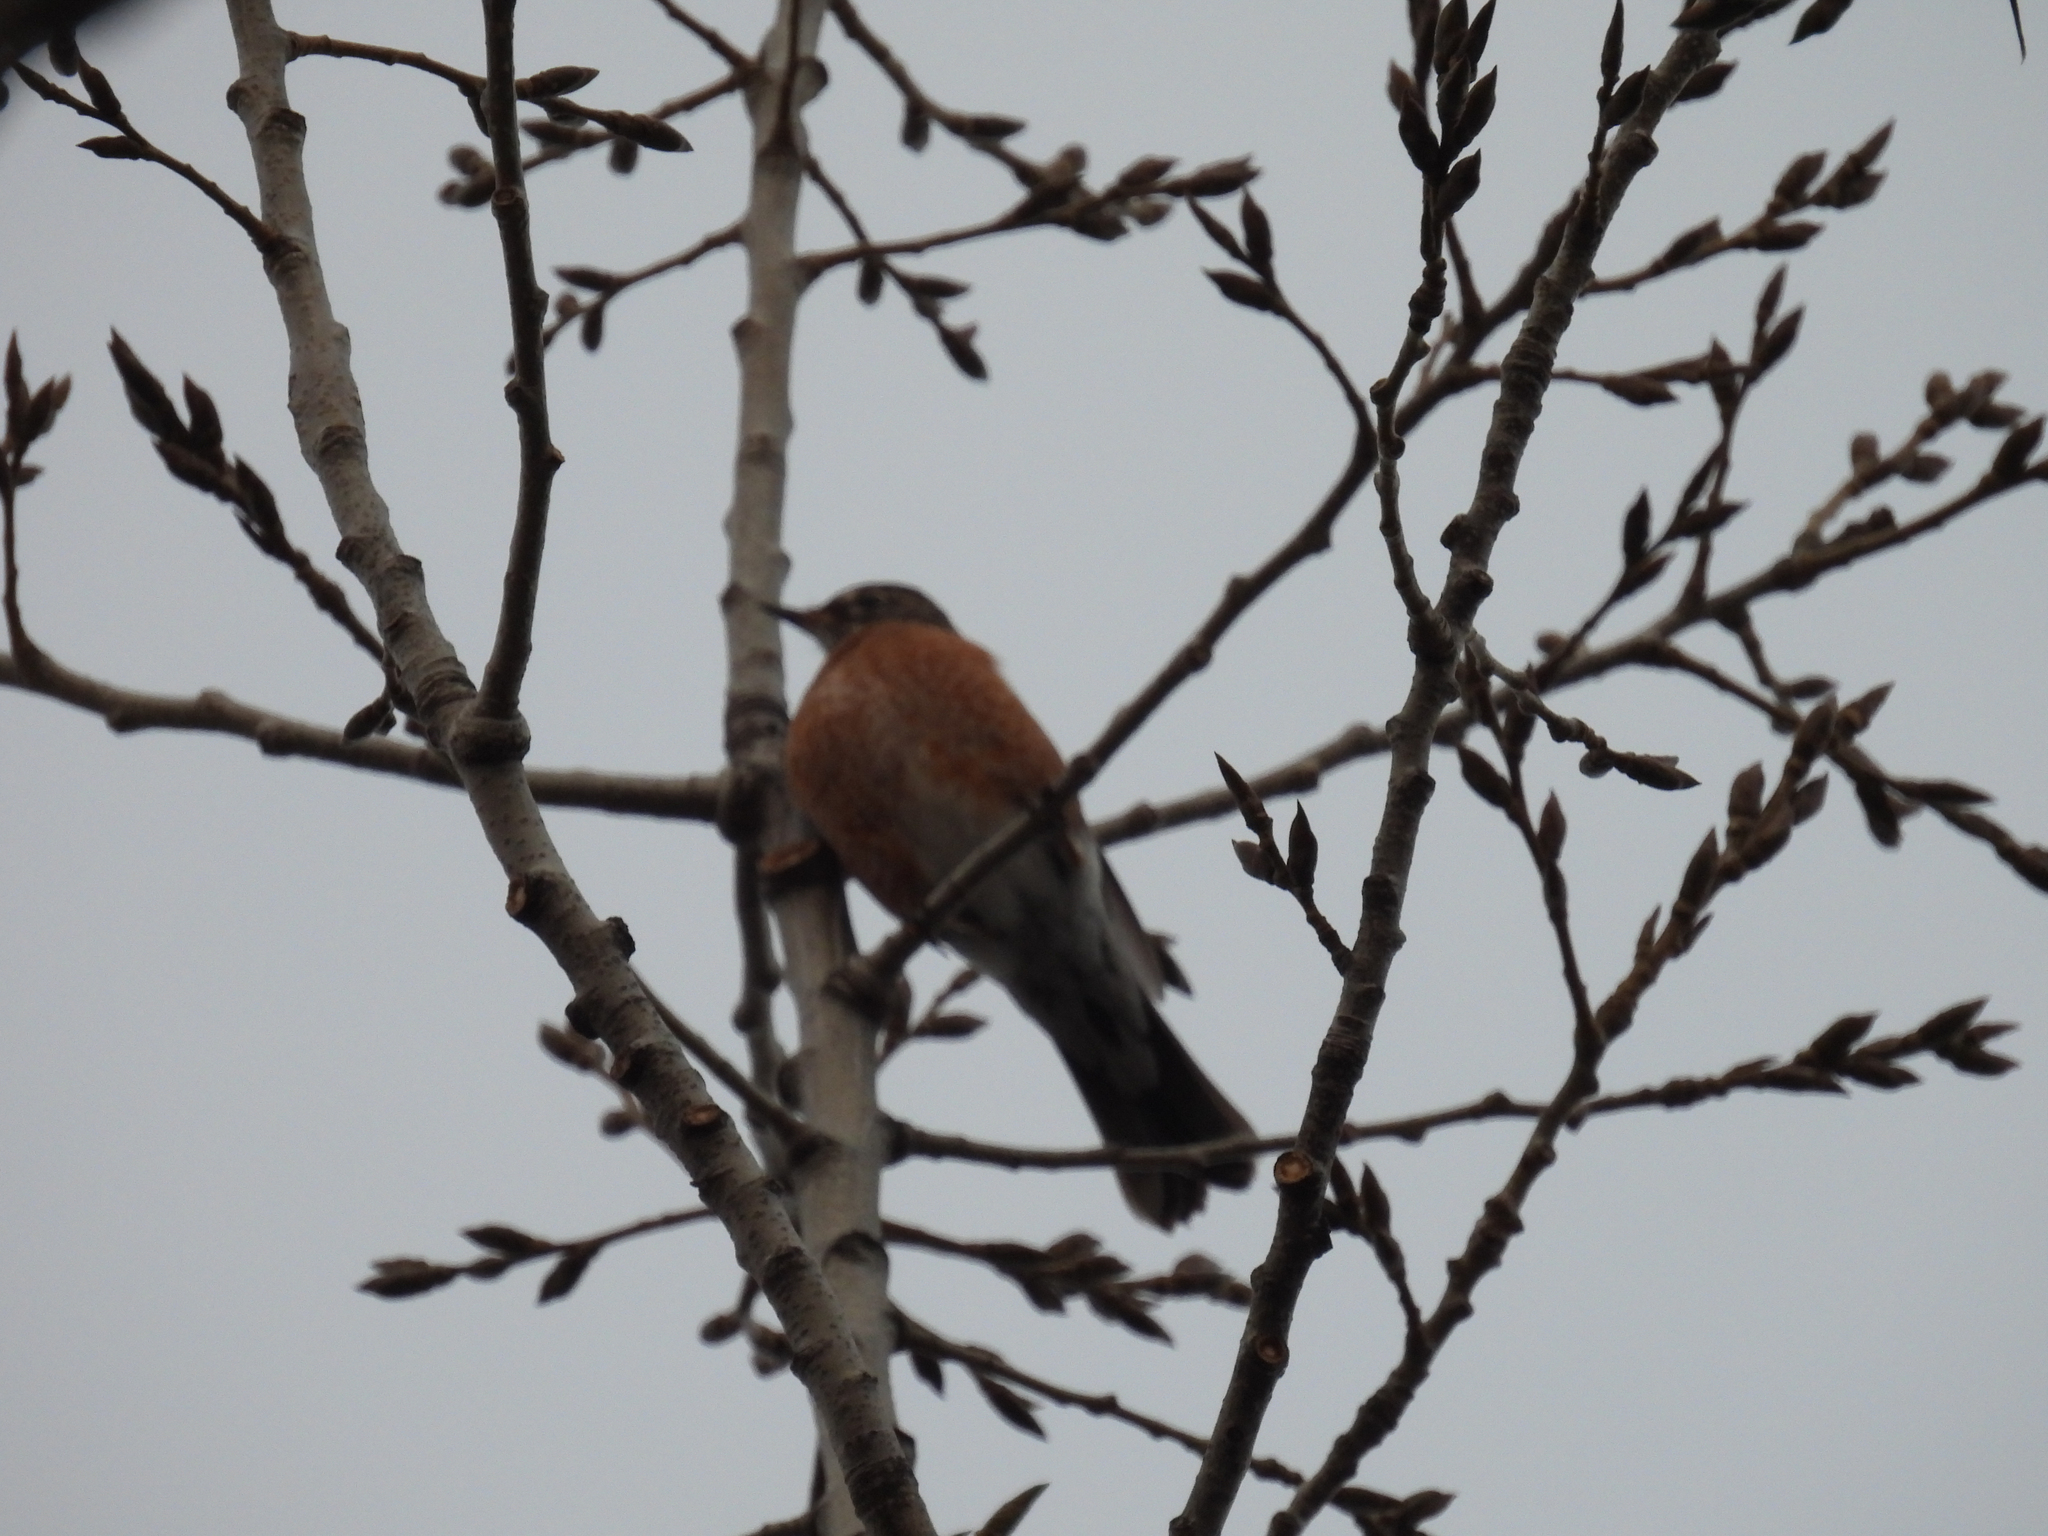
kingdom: Animalia
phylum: Chordata
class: Aves
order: Passeriformes
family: Turdidae
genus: Turdus
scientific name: Turdus migratorius
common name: American robin
